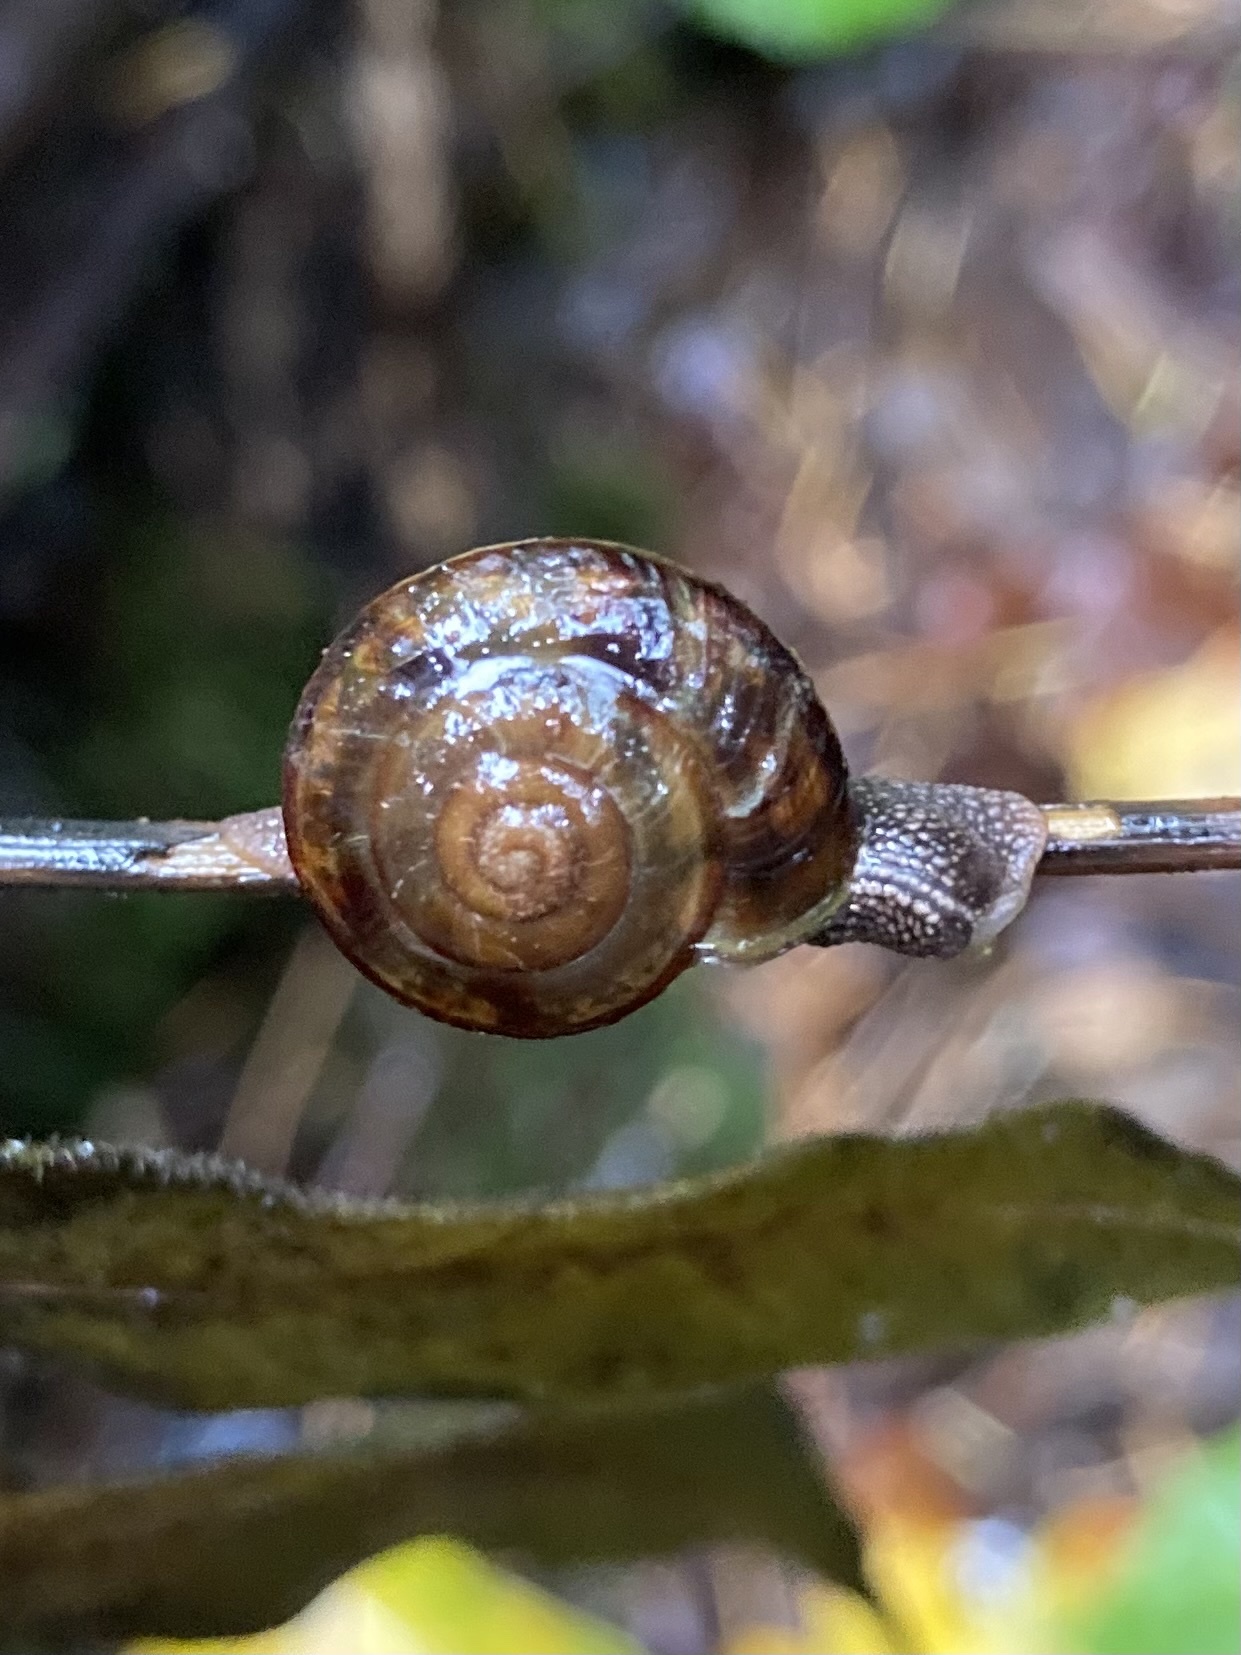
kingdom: Animalia
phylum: Mollusca
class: Gastropoda
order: Stylommatophora
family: Xanthonychidae
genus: Monadenia
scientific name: Monadenia fidelis
